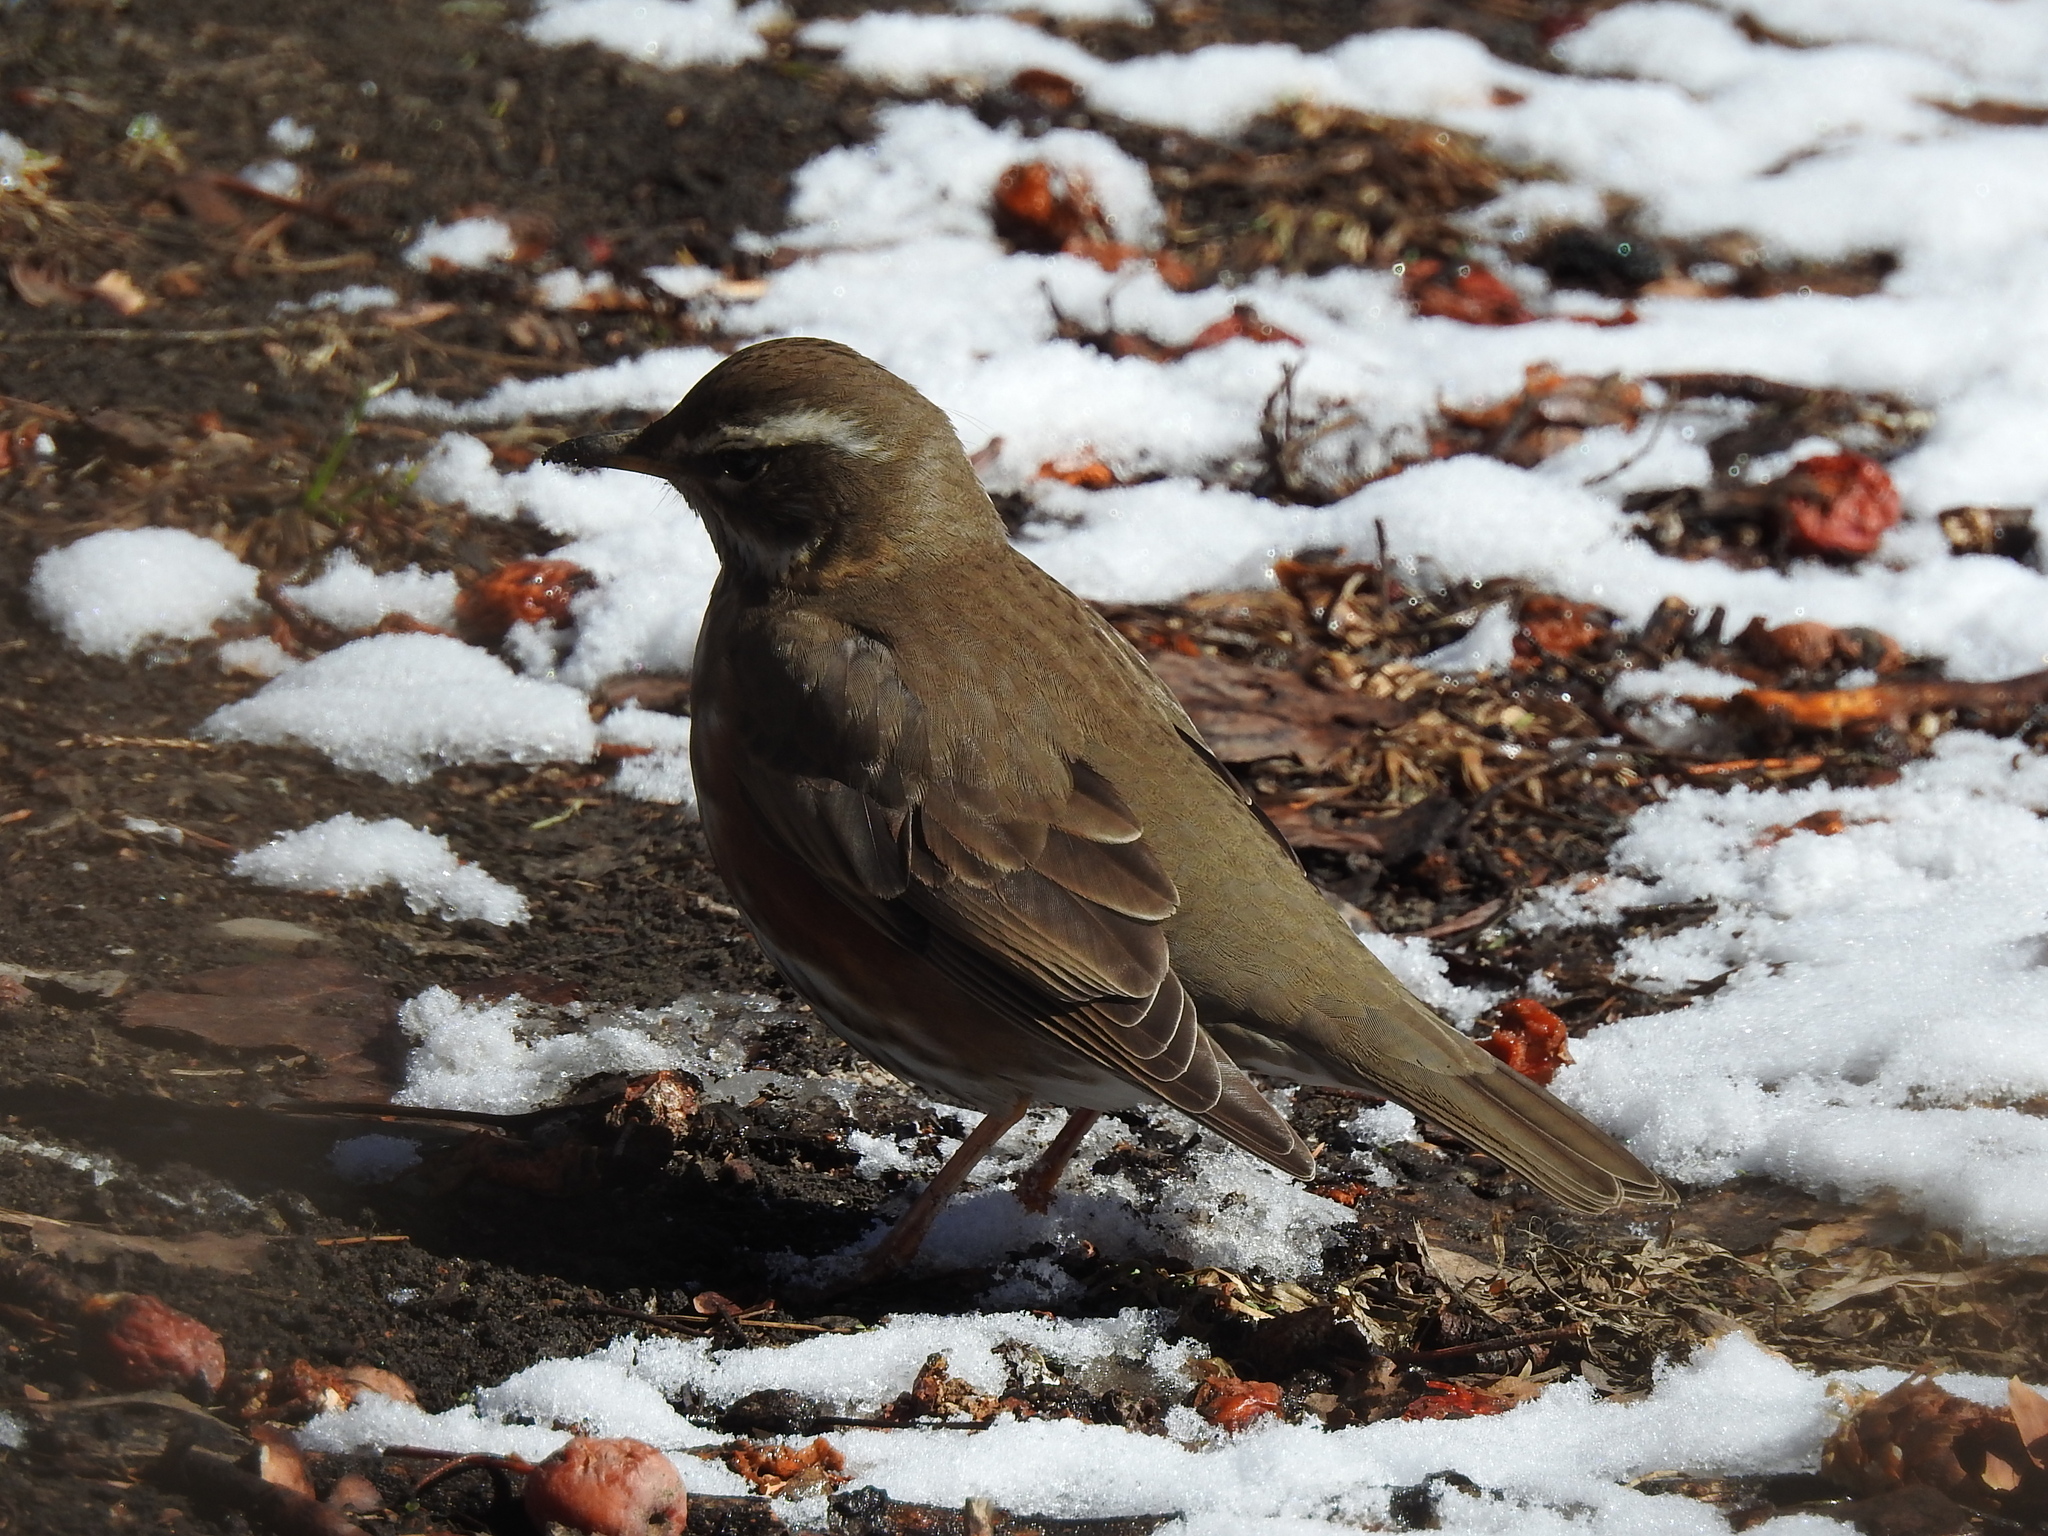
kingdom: Animalia
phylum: Chordata
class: Aves
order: Passeriformes
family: Turdidae
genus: Turdus
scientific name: Turdus iliacus
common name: Redwing
